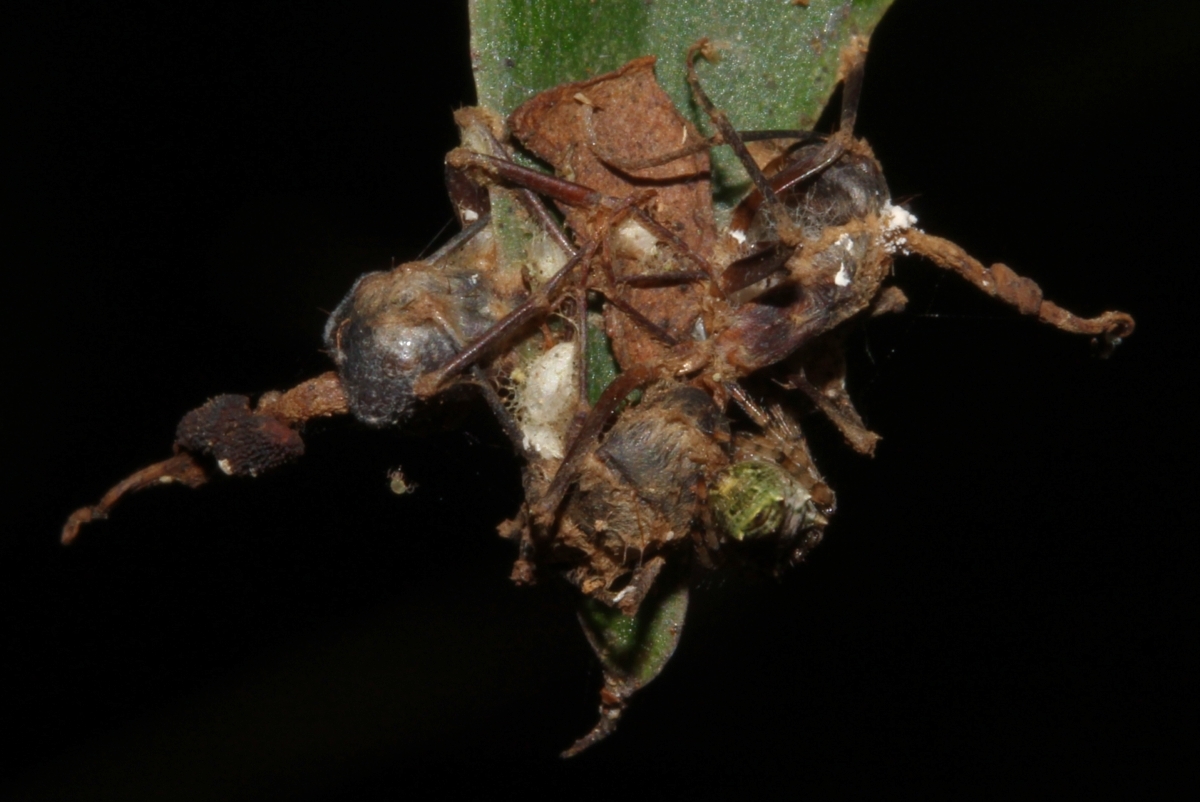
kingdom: Fungi
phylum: Ascomycota
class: Sordariomycetes
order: Hypocreales
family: Ophiocordycipitaceae
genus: Ophiocordyceps
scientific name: Ophiocordyceps
